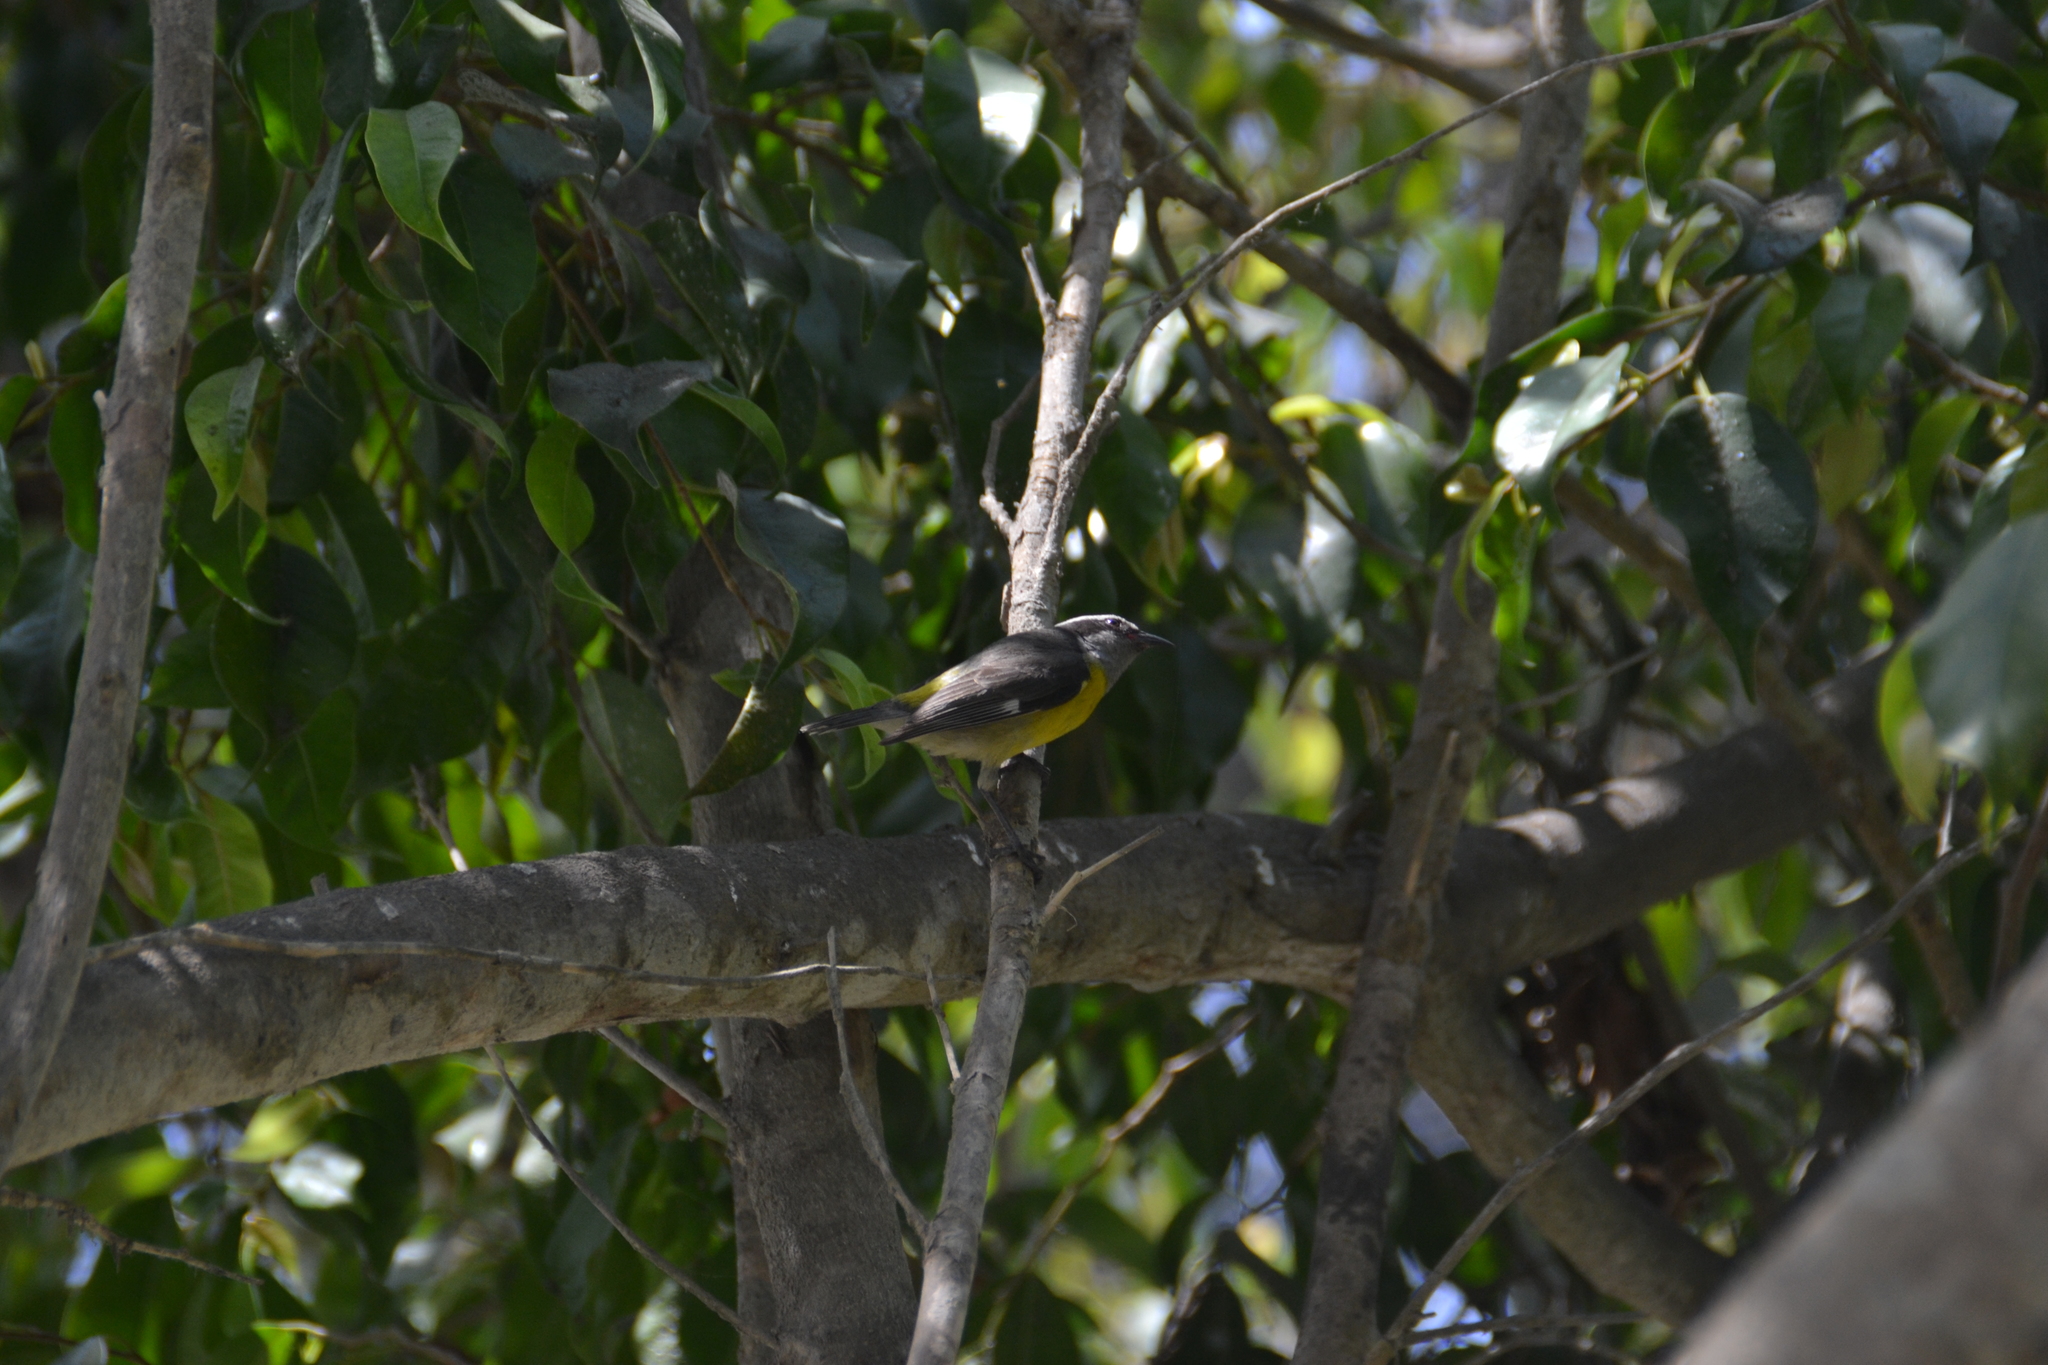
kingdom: Animalia
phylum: Chordata
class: Aves
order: Passeriformes
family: Thraupidae
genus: Coereba
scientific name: Coereba flaveola
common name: Bananaquit
